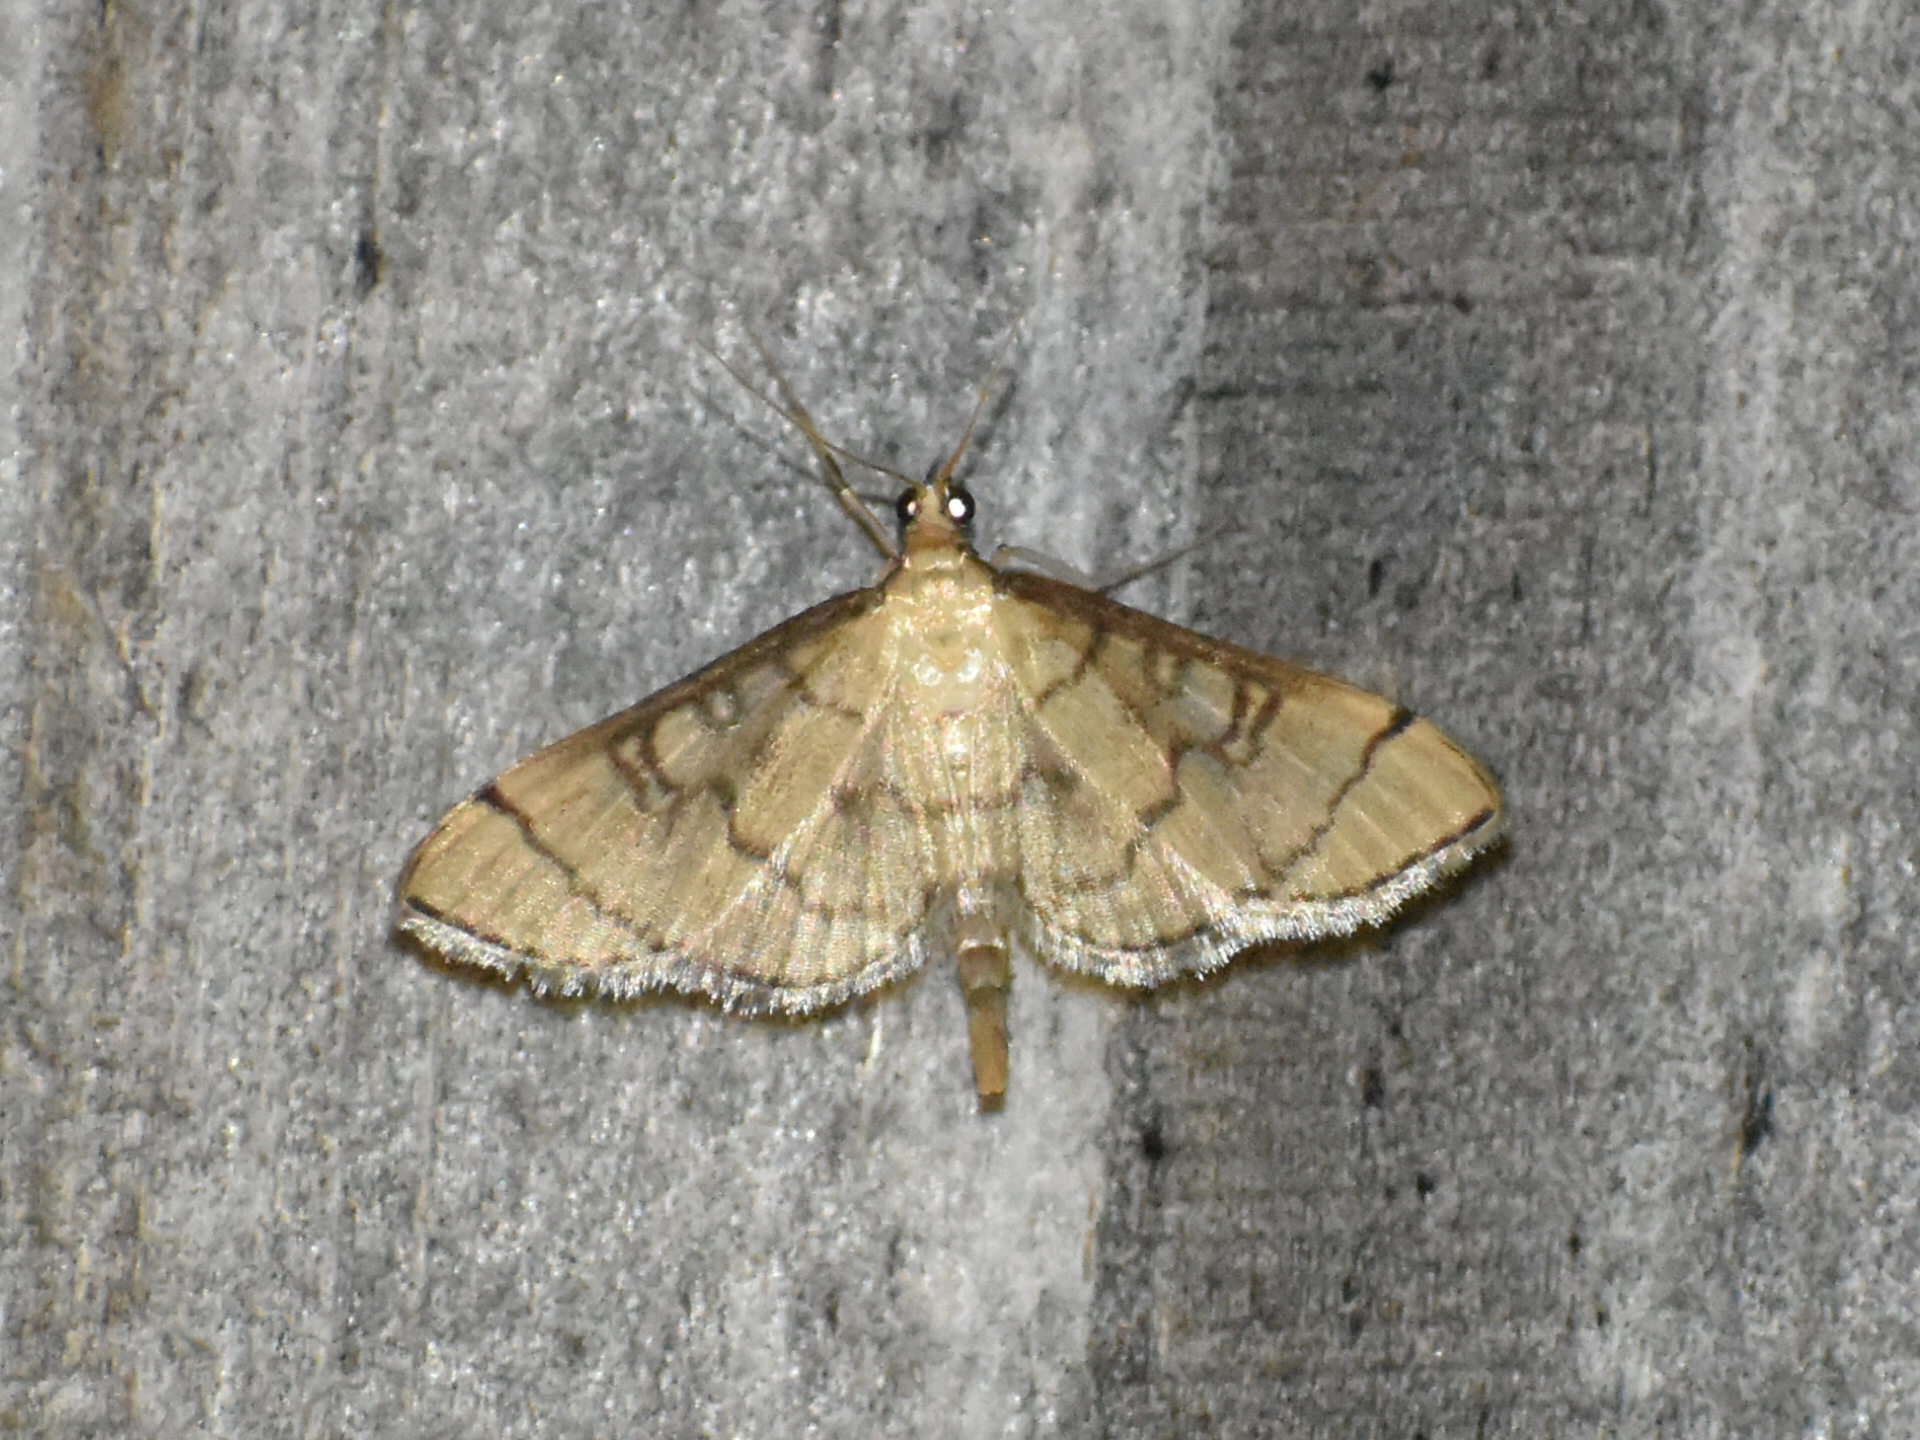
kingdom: Animalia
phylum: Arthropoda
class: Insecta
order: Lepidoptera
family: Crambidae
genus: Lamprosema
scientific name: Lamprosema Blepharomastix ranalis
